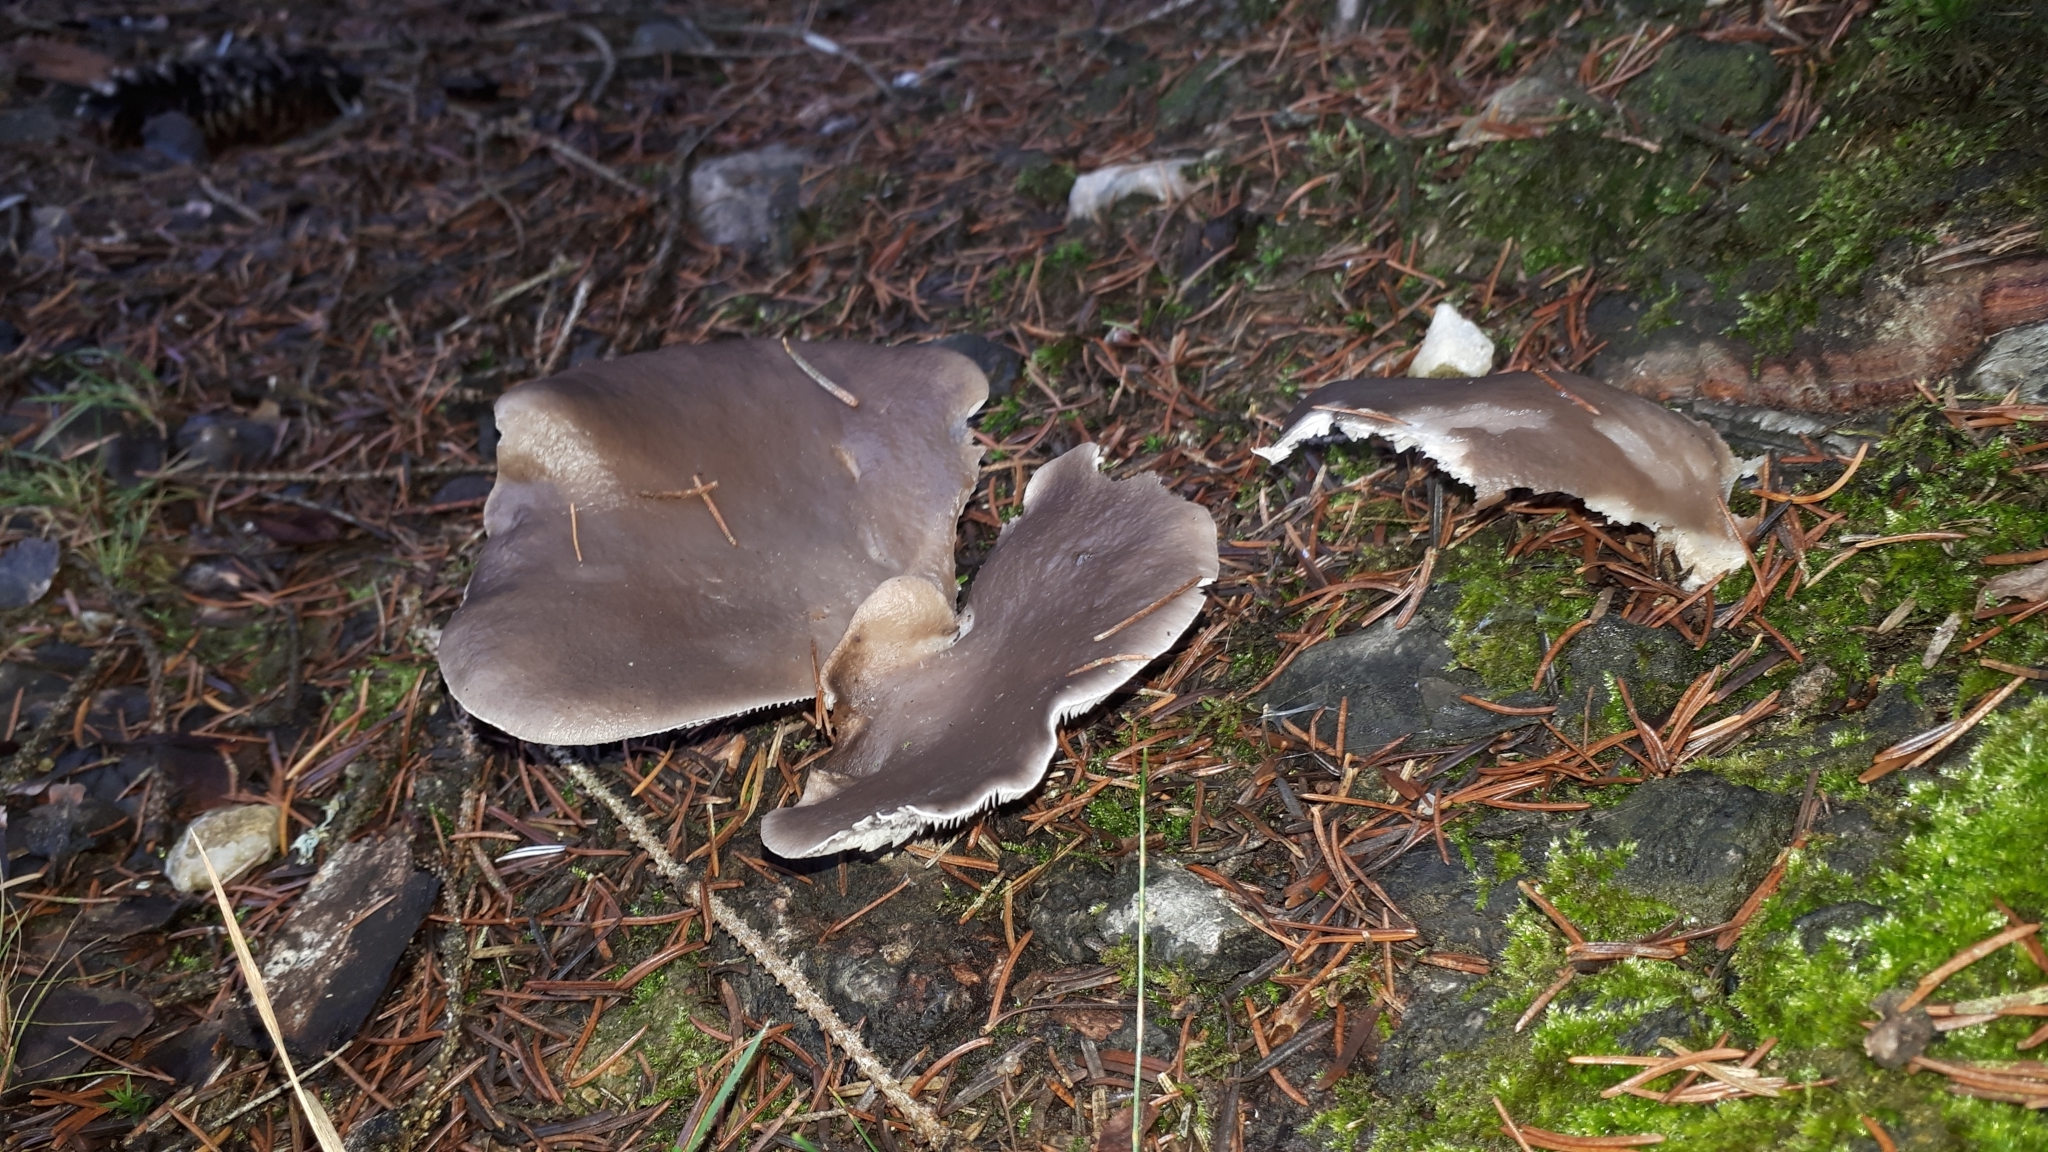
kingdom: Fungi
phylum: Basidiomycota
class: Agaricomycetes
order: Agaricales
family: Pleurotaceae
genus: Pleurotus
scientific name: Pleurotus ostreatus
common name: Oyster mushroom
